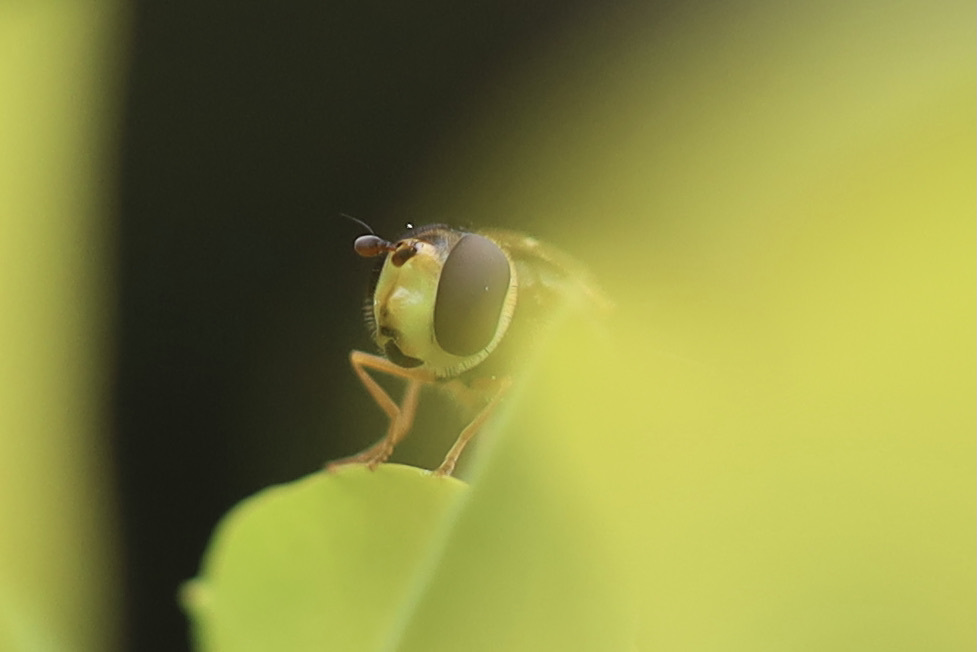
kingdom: Animalia
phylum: Arthropoda
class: Insecta
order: Diptera
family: Syrphidae
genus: Syrphus
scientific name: Syrphus opinator
